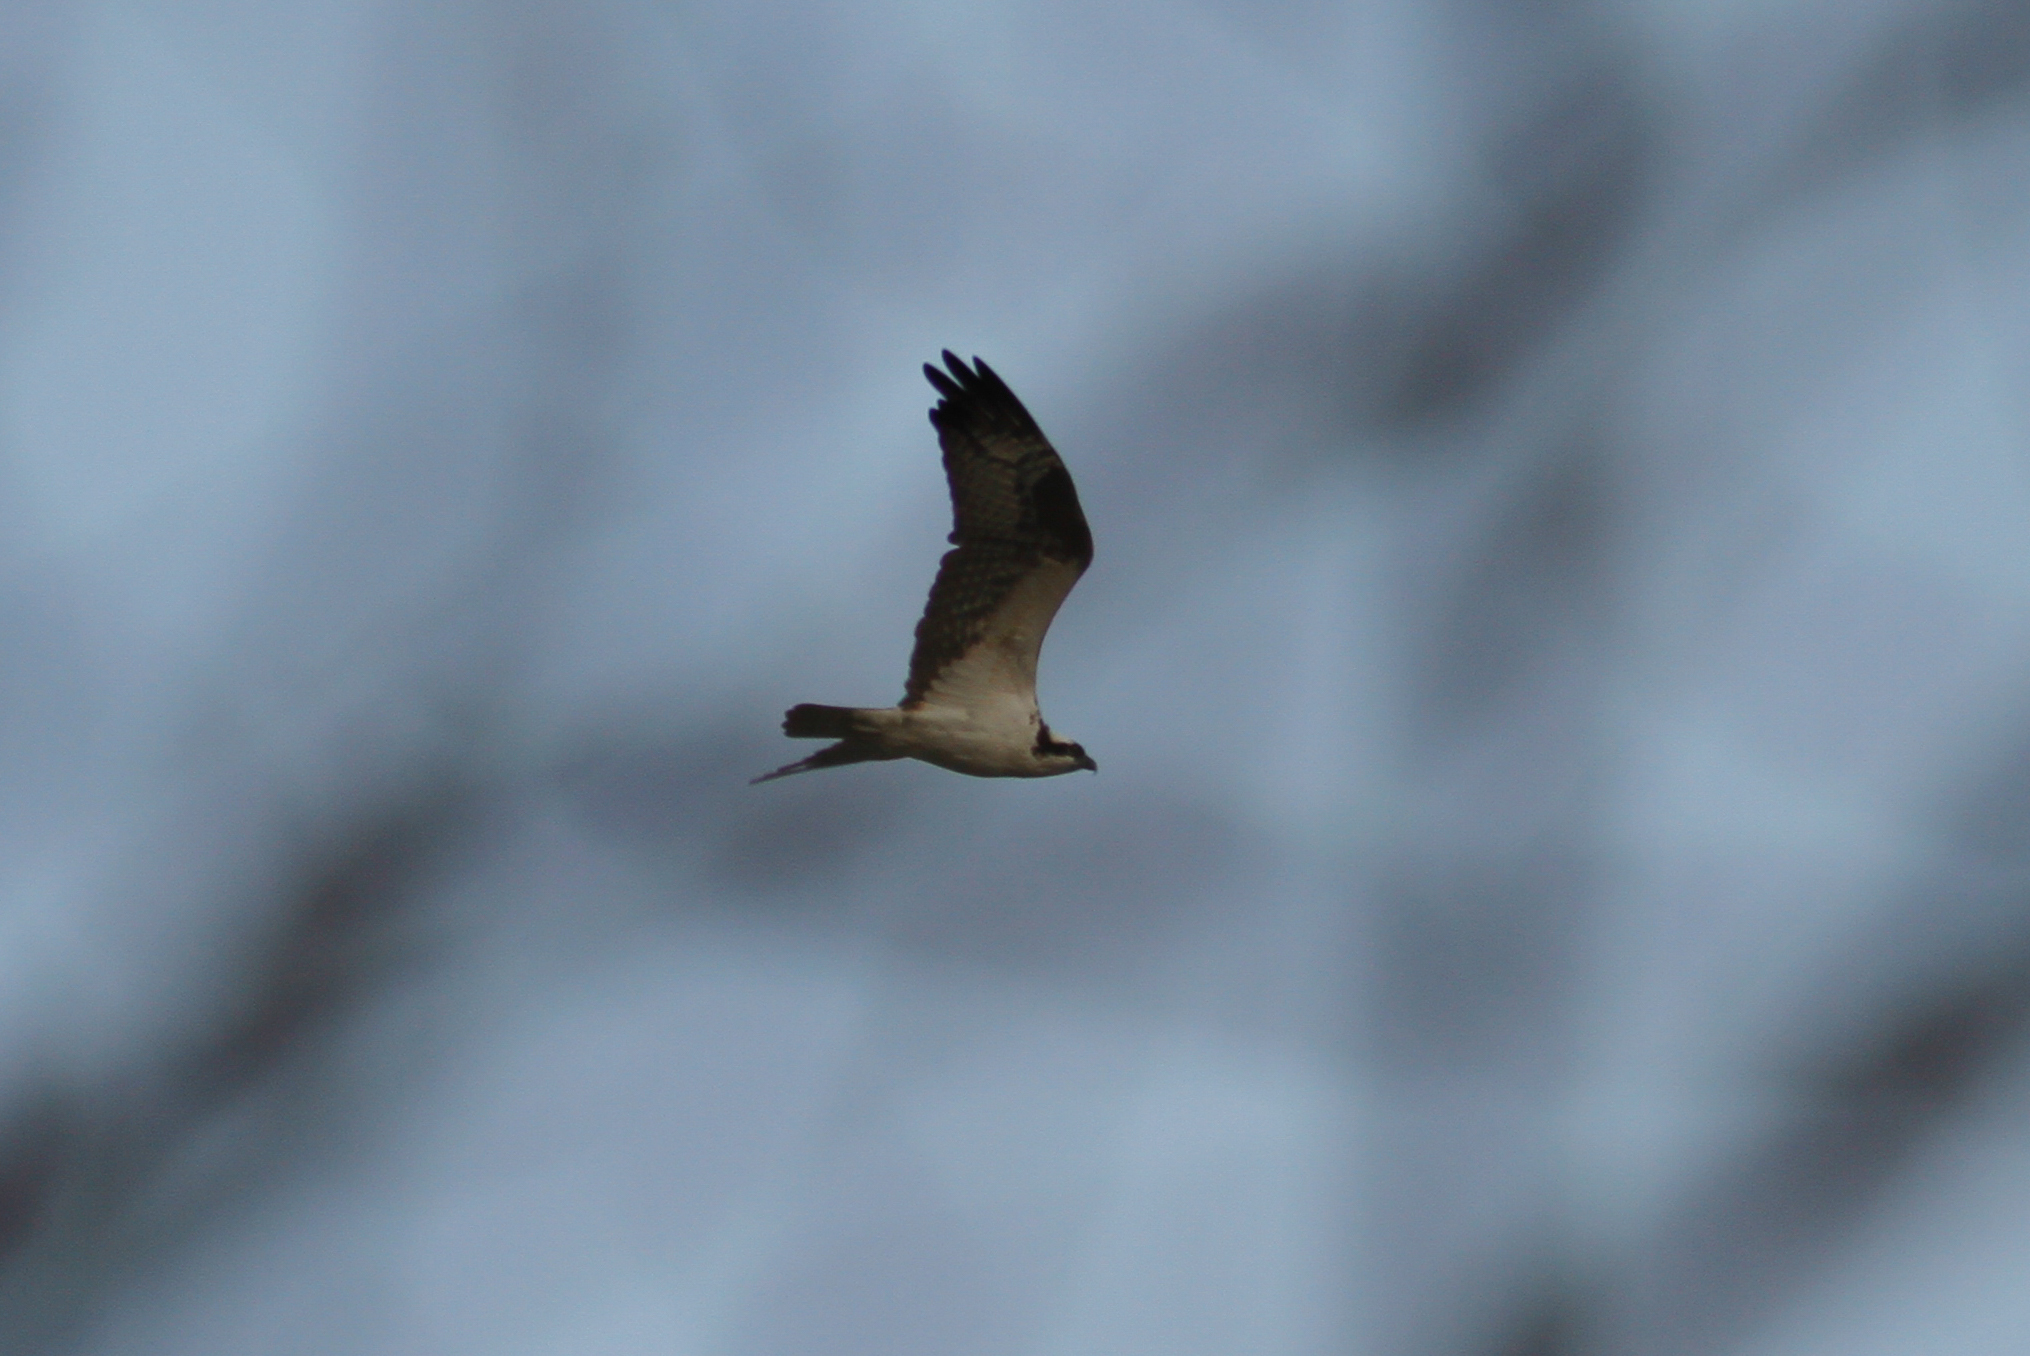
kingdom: Animalia
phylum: Chordata
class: Aves
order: Accipitriformes
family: Pandionidae
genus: Pandion
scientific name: Pandion haliaetus
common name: Osprey
